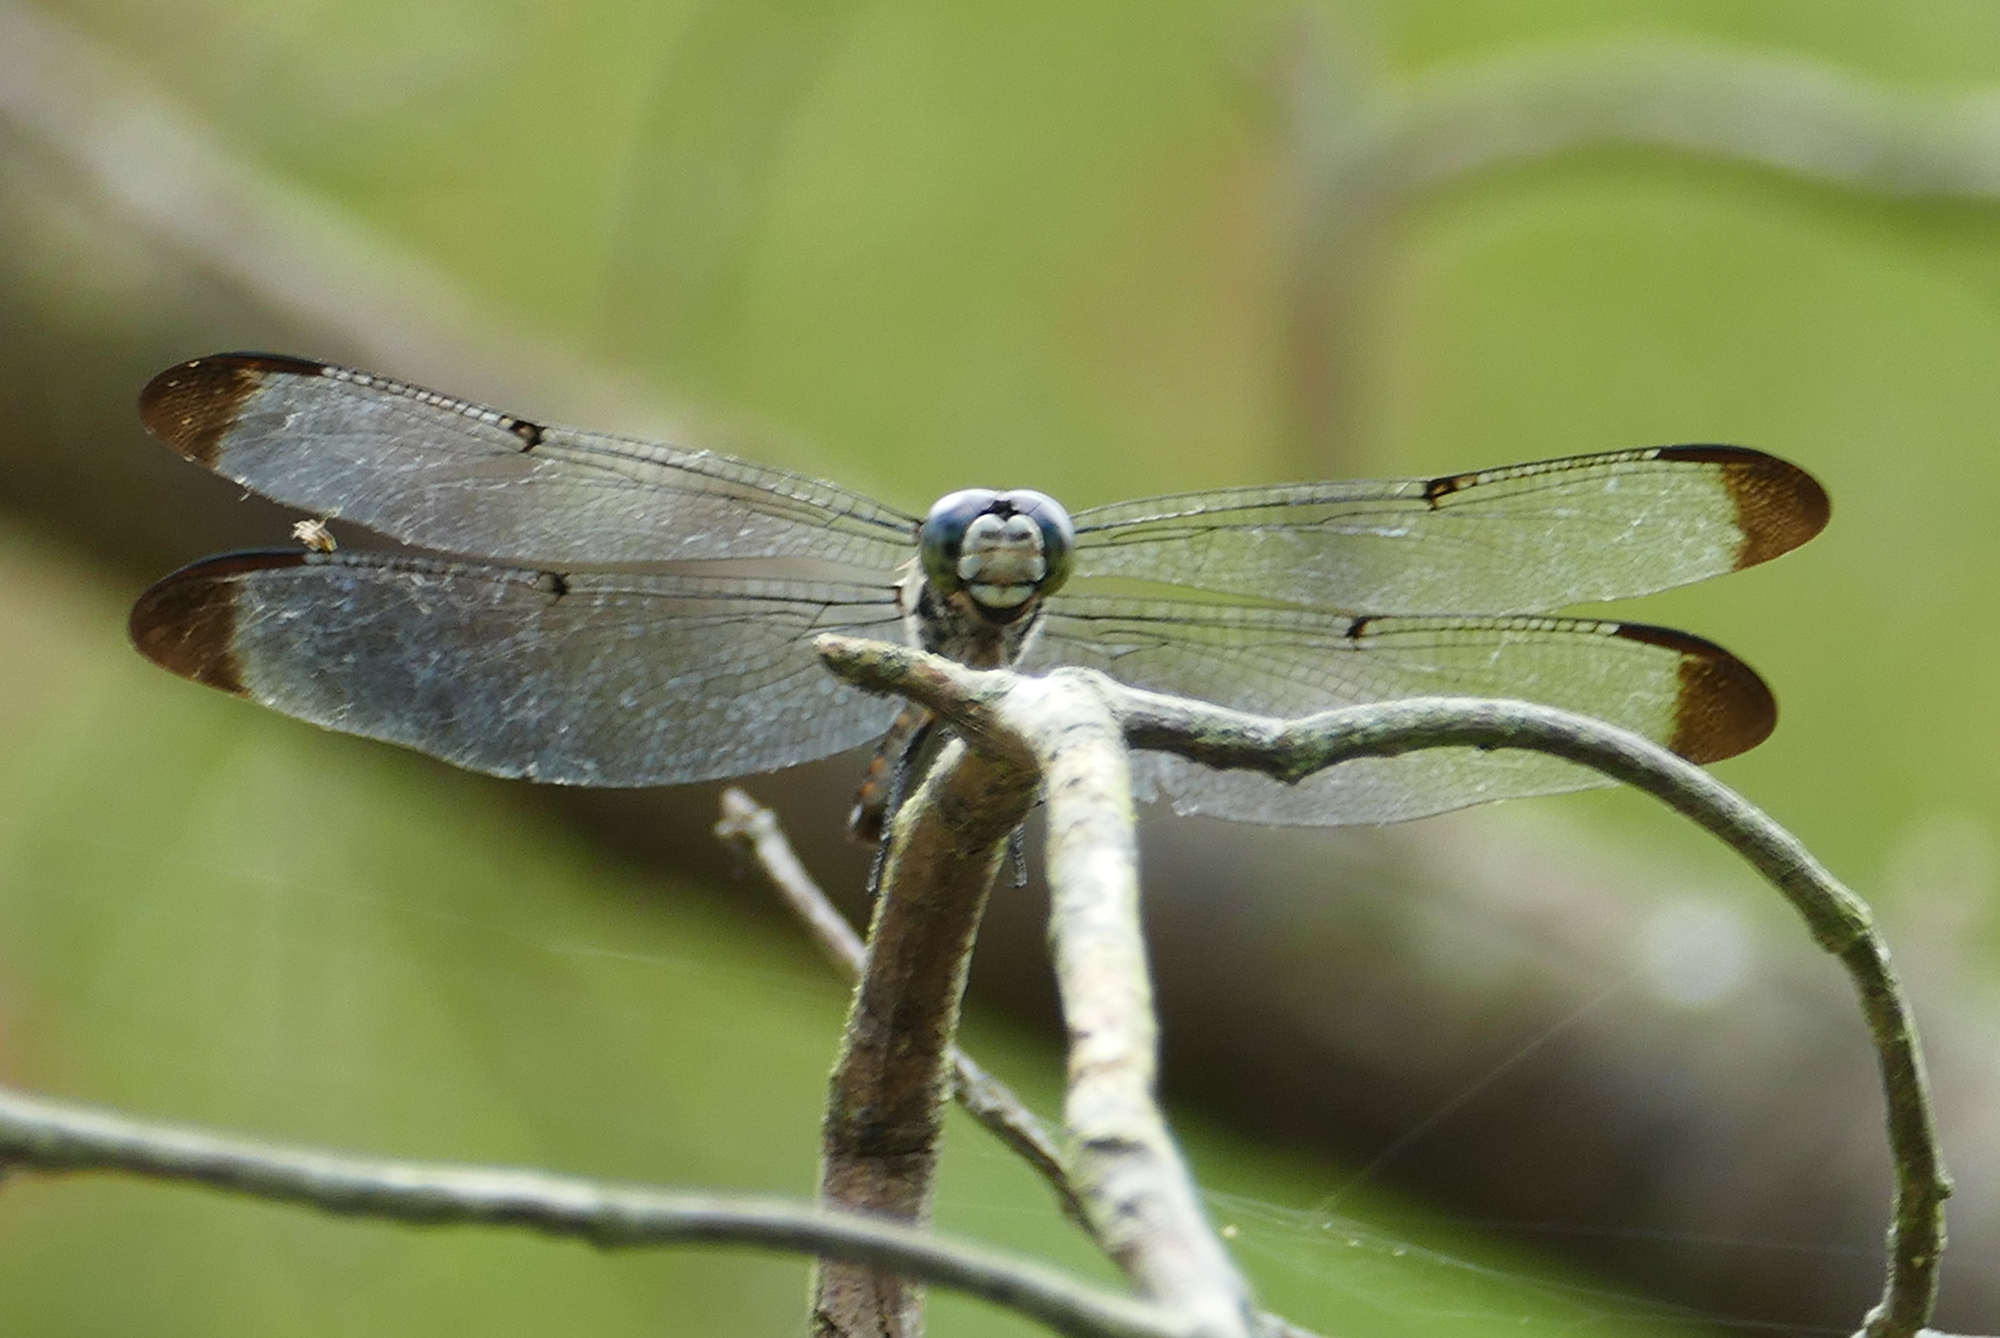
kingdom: Animalia
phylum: Arthropoda
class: Insecta
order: Odonata
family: Libellulidae
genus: Libellula
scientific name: Libellula vibrans
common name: Great blue skimmer
